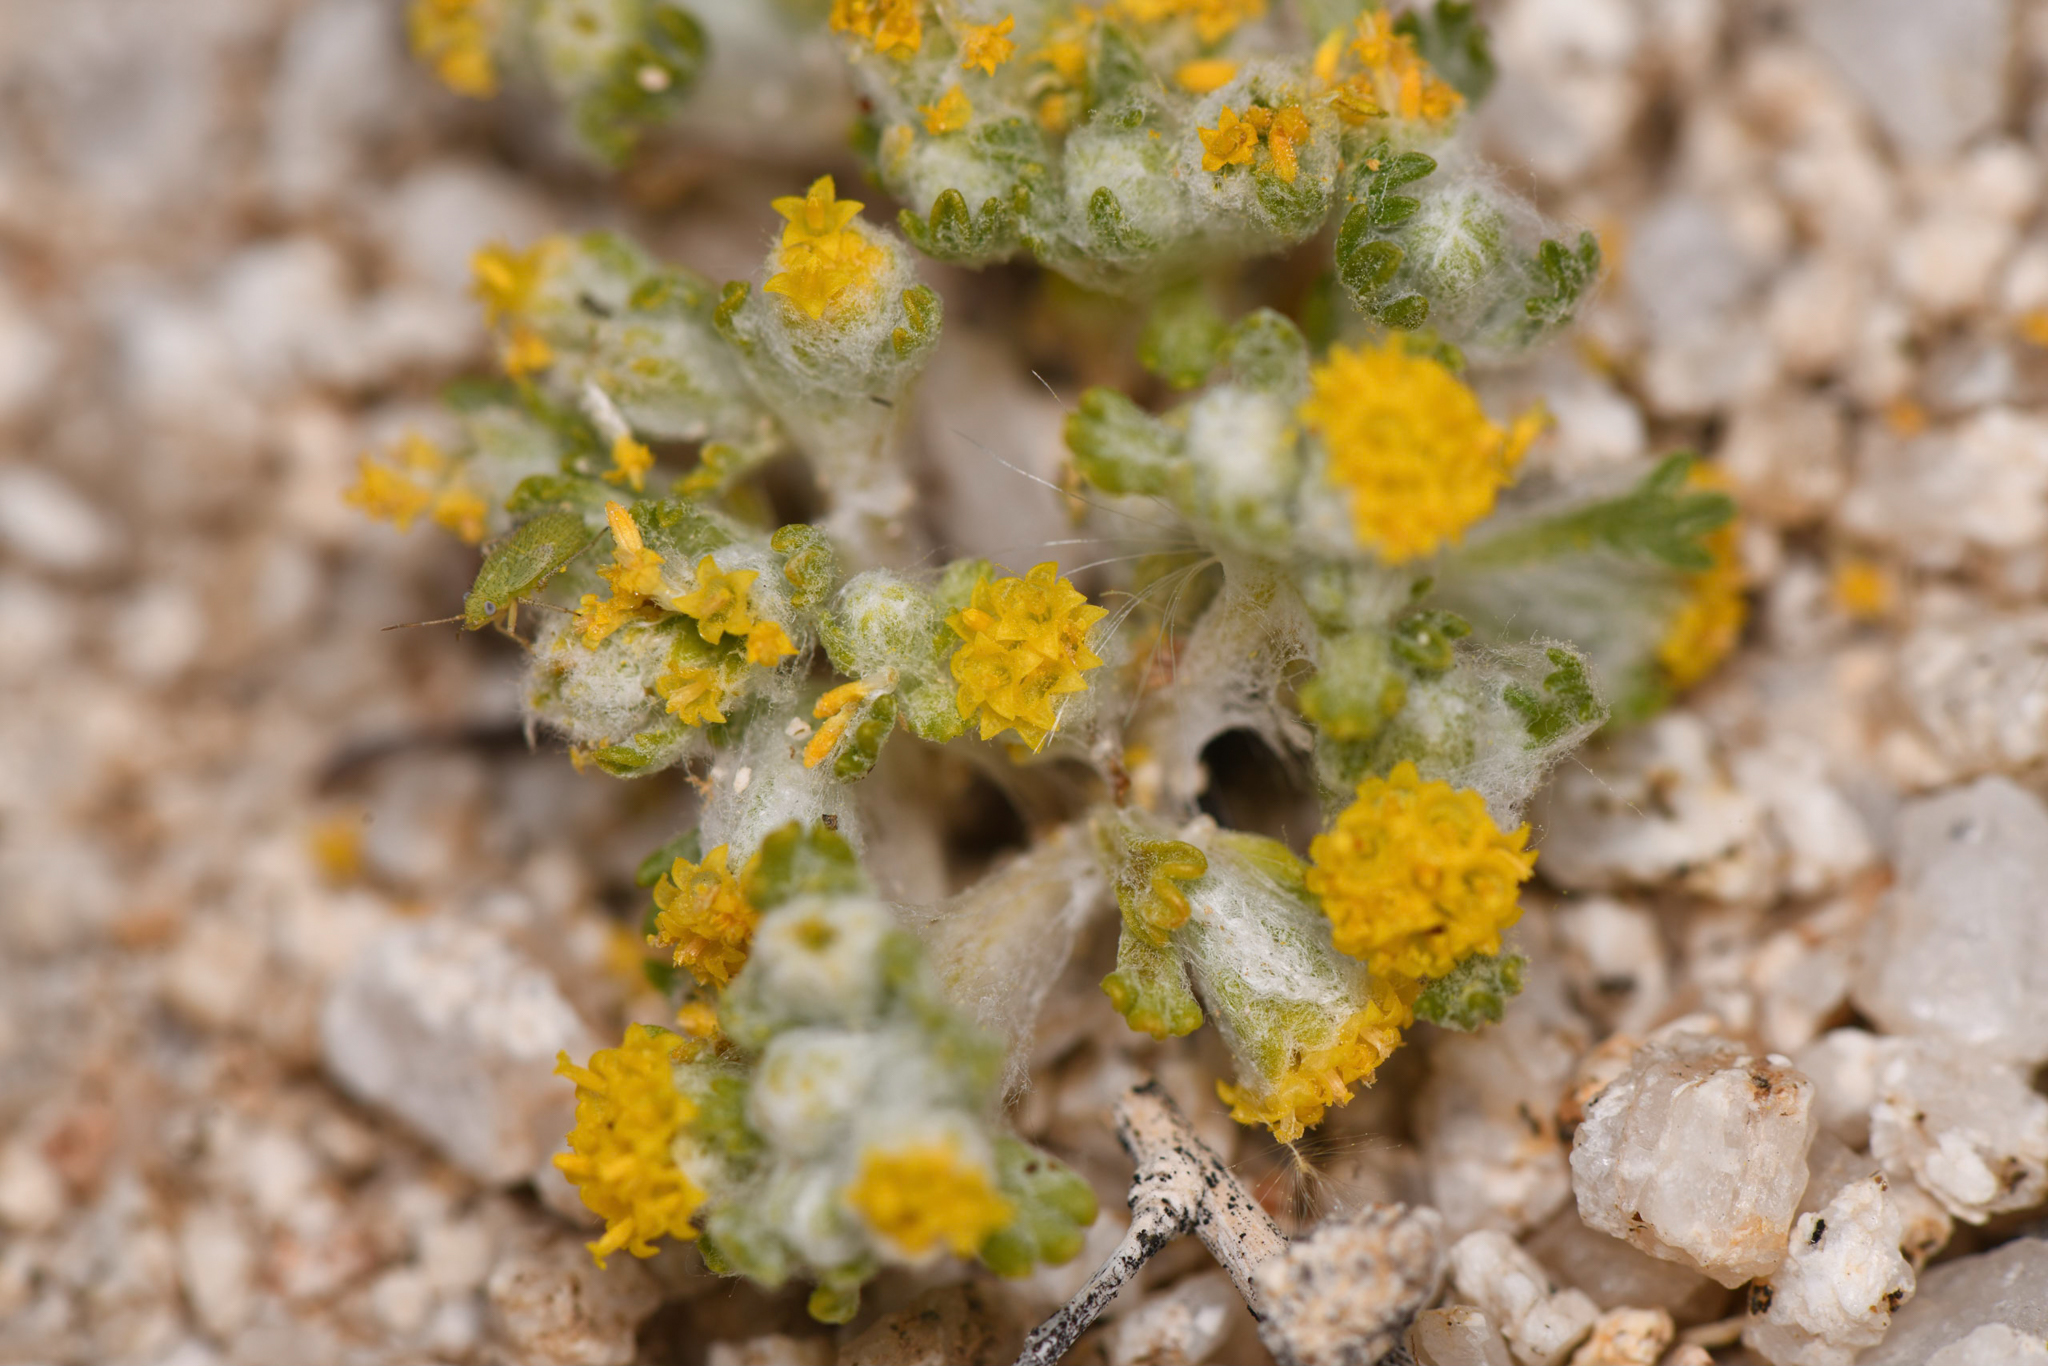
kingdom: Plantae
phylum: Tracheophyta
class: Magnoliopsida
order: Asterales
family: Asteraceae
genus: Eriophyllum
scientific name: Eriophyllum pringlei
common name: Pringle's woolly-sunflower
